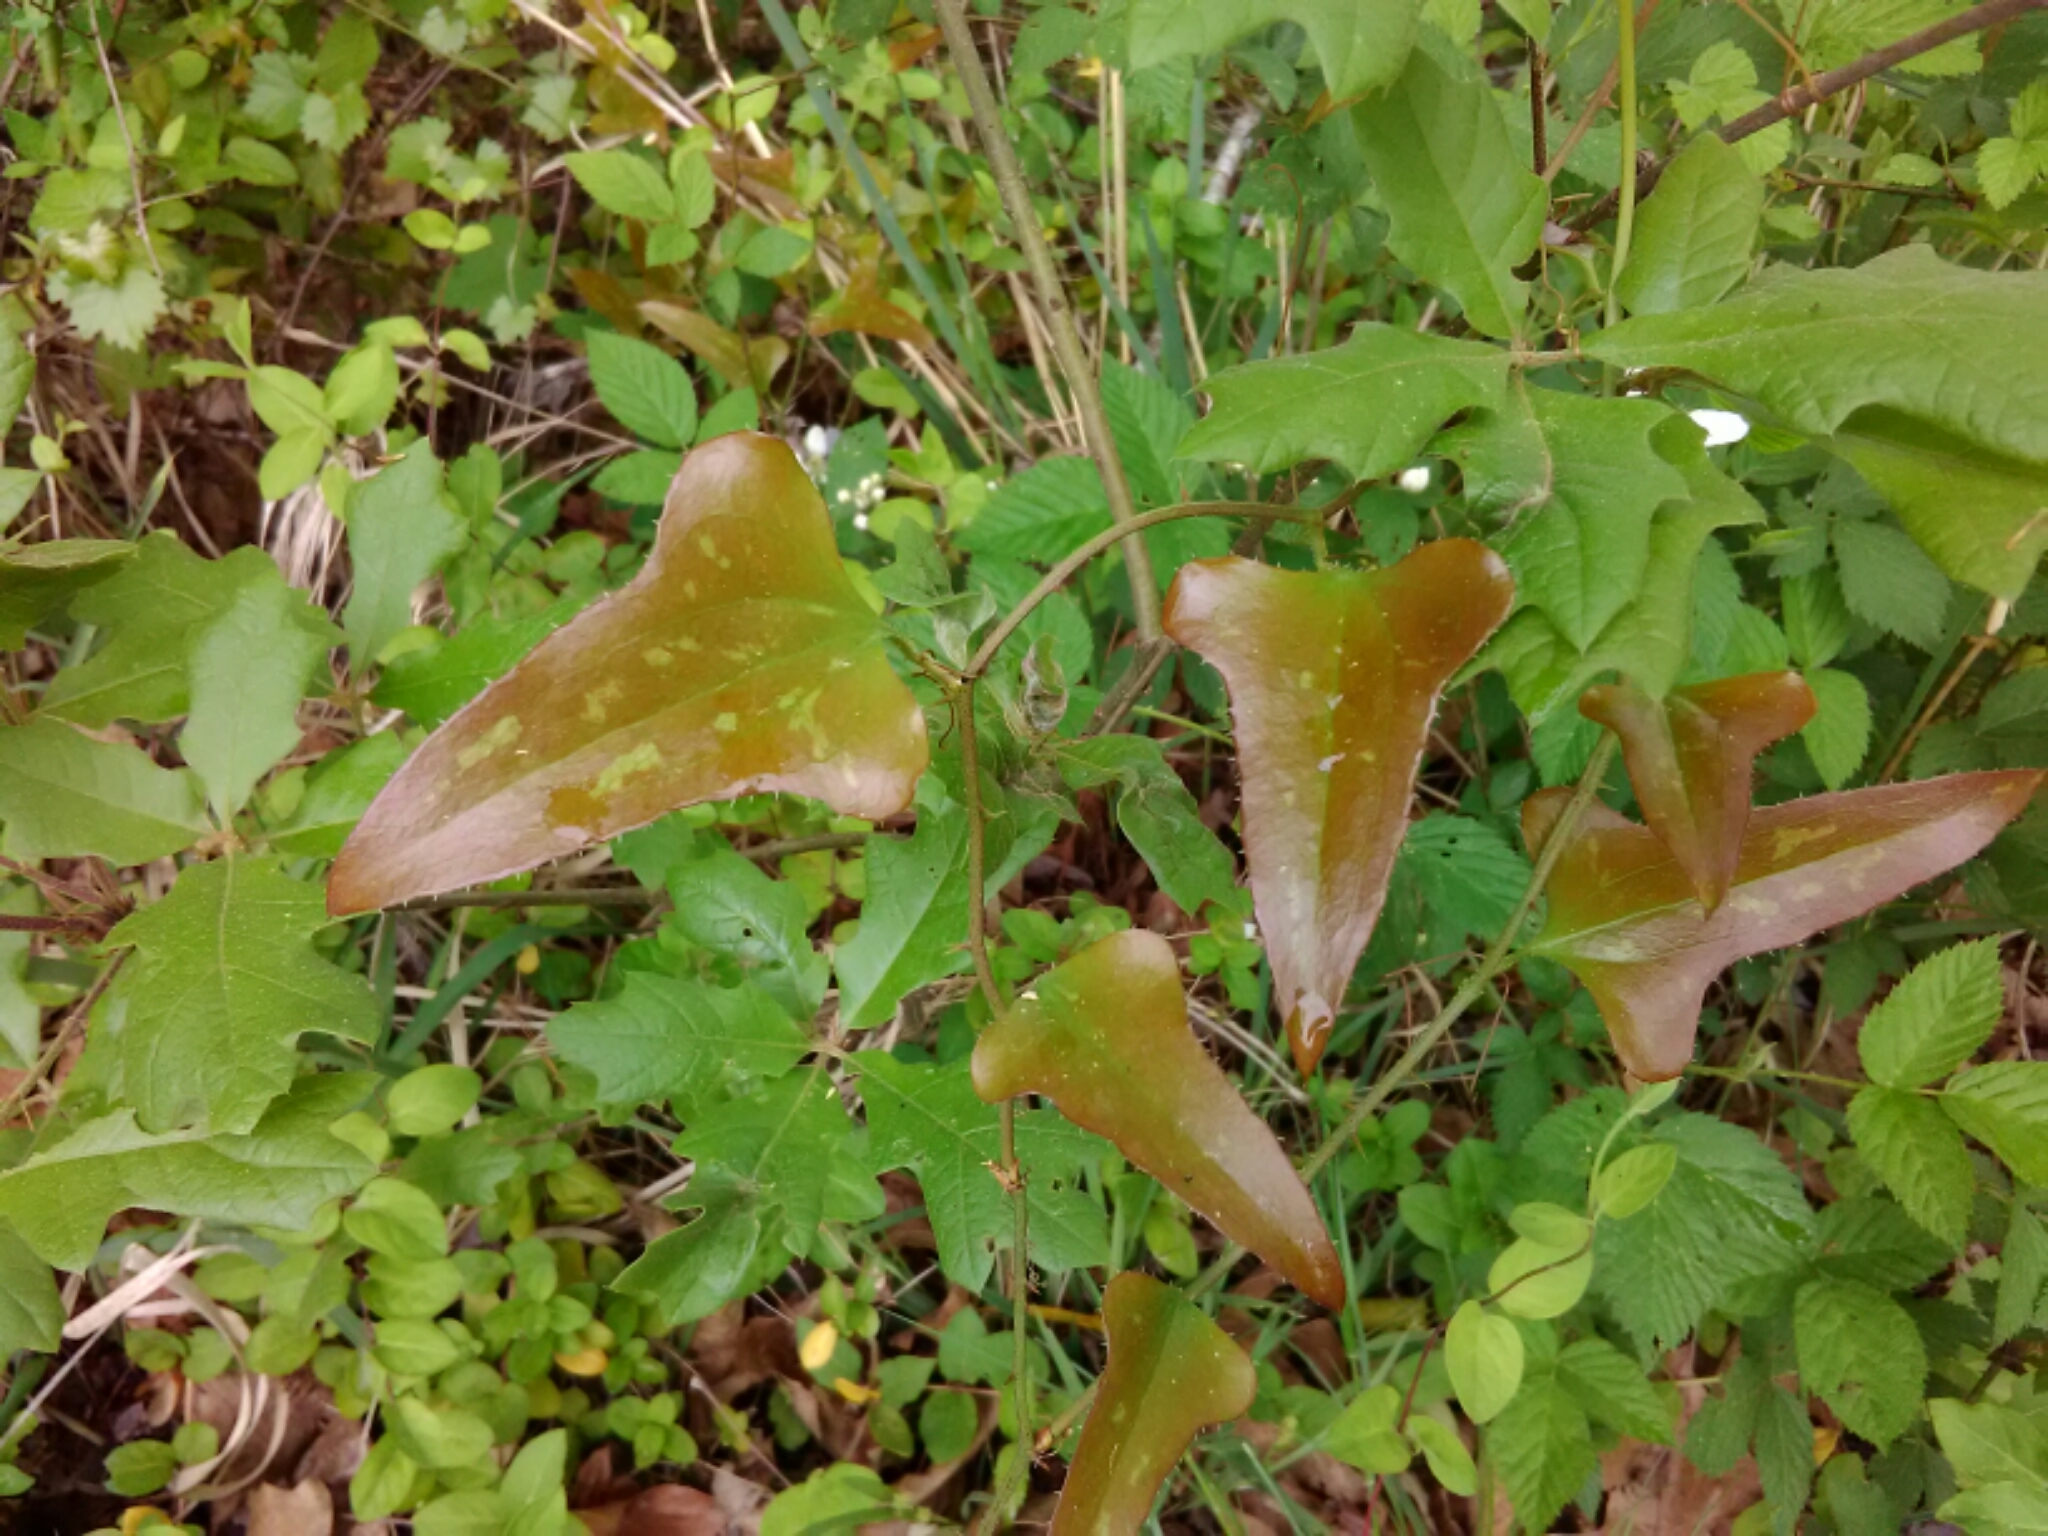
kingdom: Plantae
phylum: Tracheophyta
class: Liliopsida
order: Liliales
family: Smilacaceae
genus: Smilax
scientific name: Smilax bona-nox
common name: Catbrier
